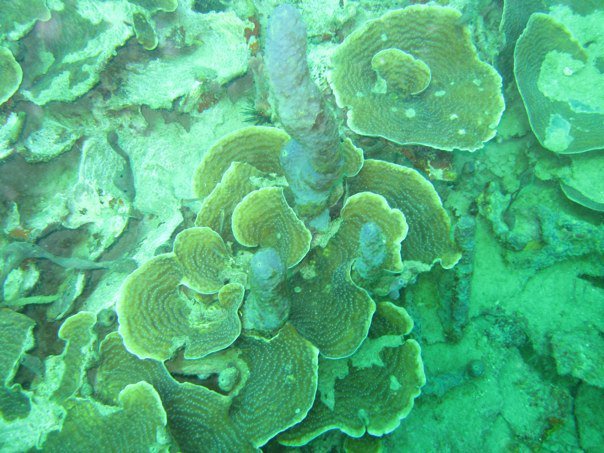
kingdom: Animalia
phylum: Porifera
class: Demospongiae
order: Verongiida
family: Aplysinidae
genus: Aplysina
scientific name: Aplysina cauliformis
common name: Branching candle sponge
